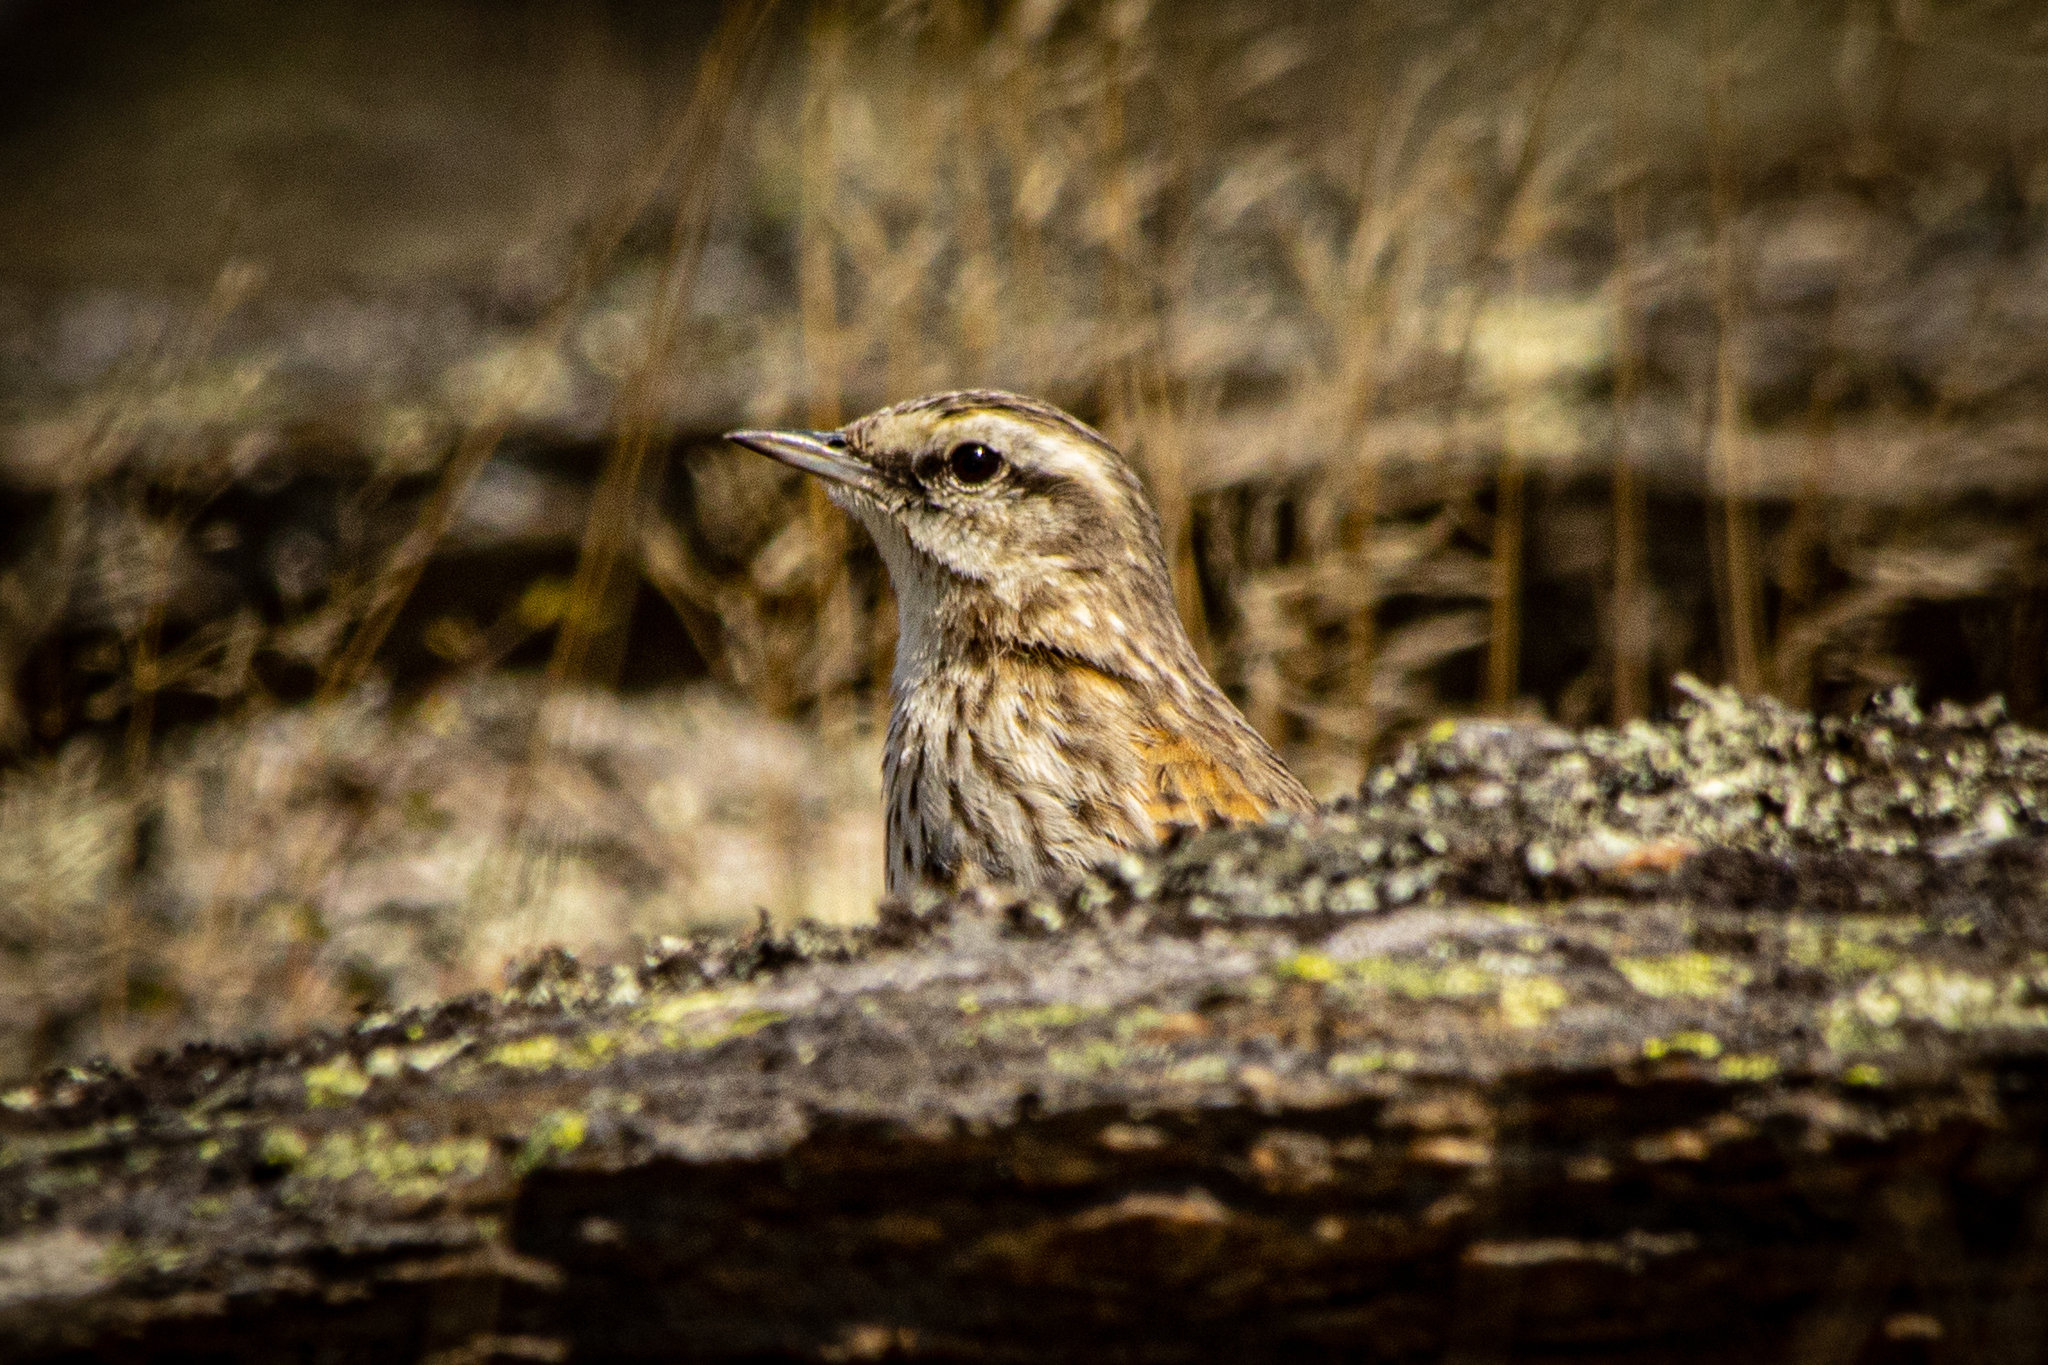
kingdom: Animalia
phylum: Chordata
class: Aves
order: Passeriformes
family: Motacillidae
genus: Anthus
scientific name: Anthus novaeseelandiae
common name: New zealand pipit
